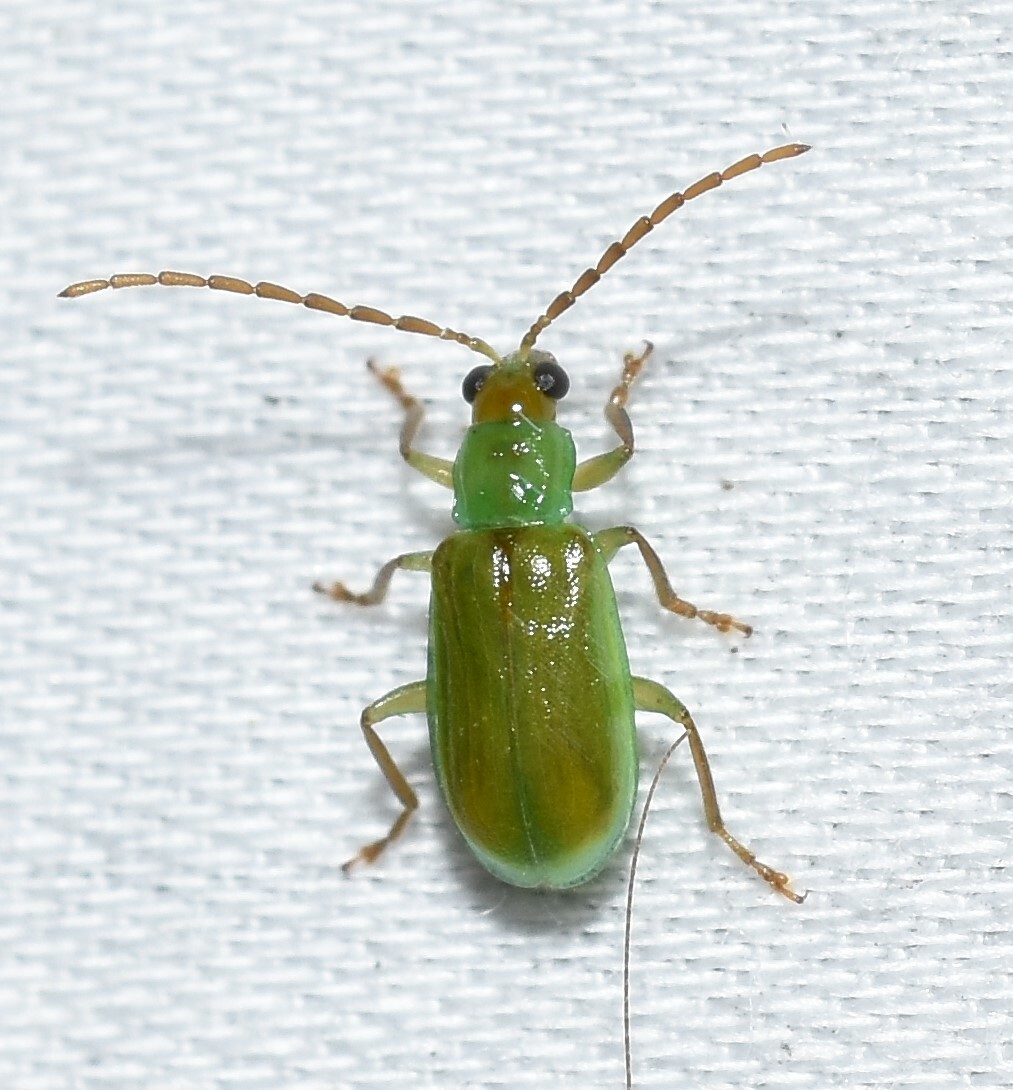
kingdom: Animalia
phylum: Arthropoda
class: Insecta
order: Coleoptera
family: Chrysomelidae
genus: Diabrotica
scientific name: Diabrotica barberi
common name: Northern corn rootworm
